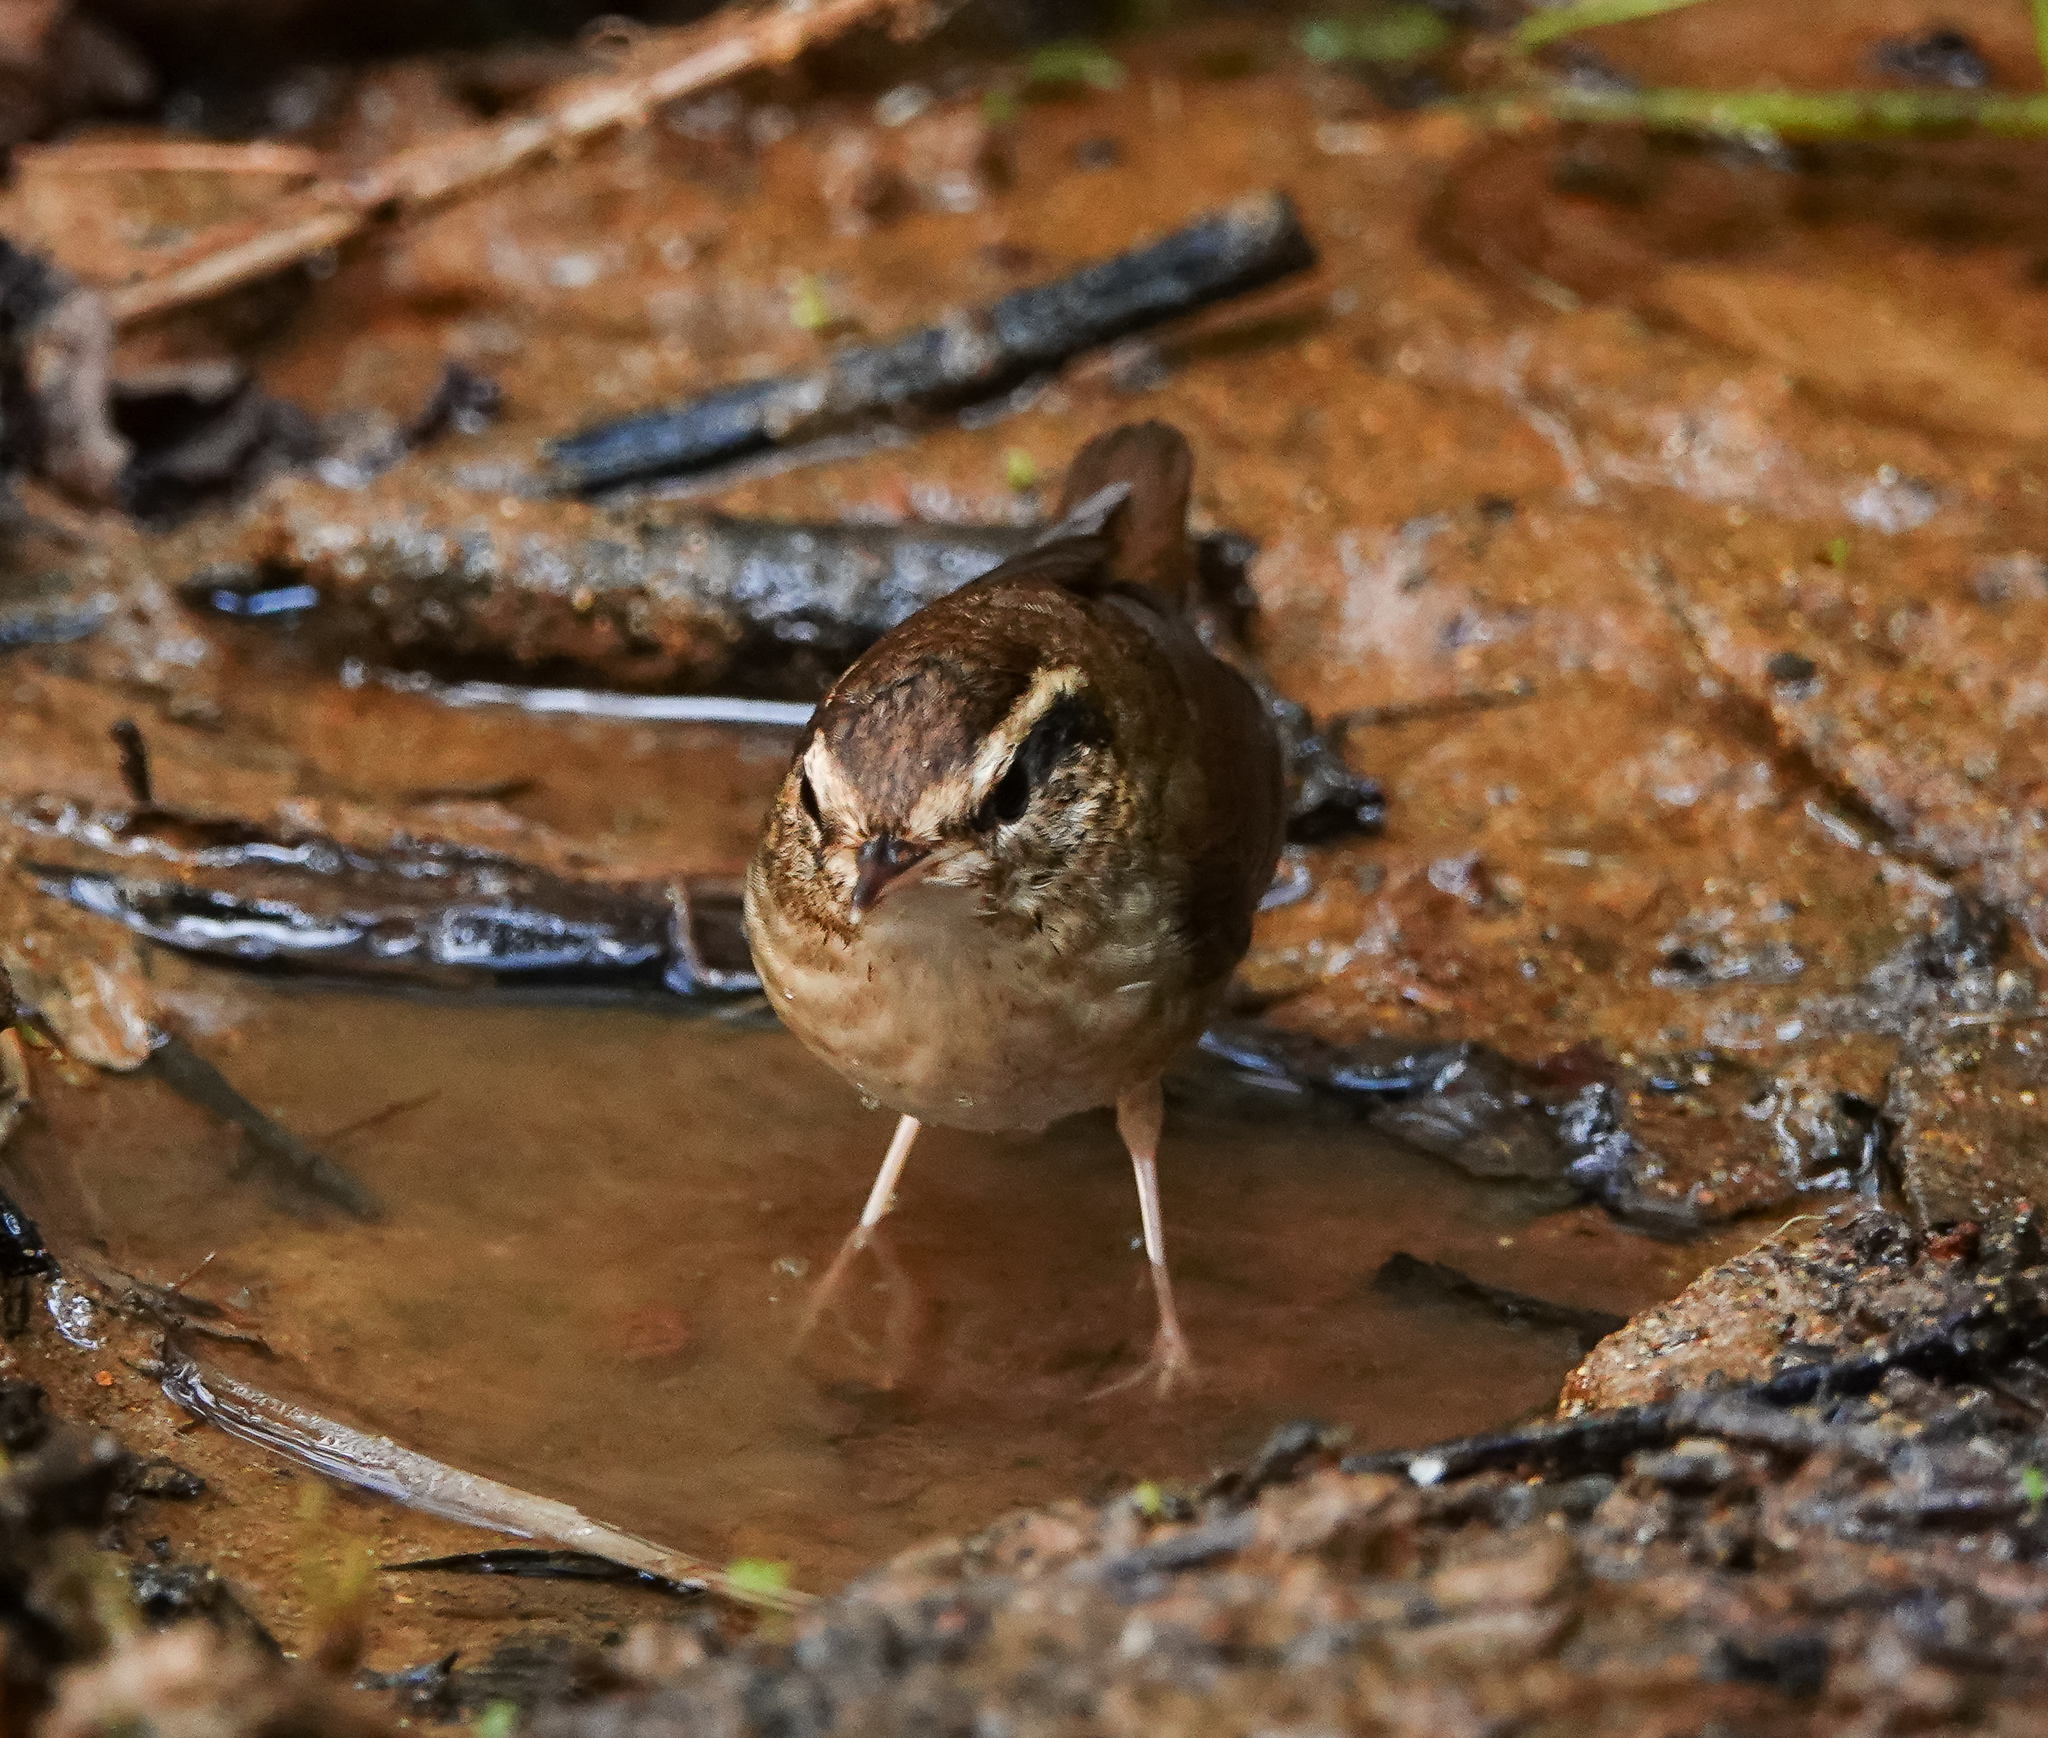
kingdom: Animalia
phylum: Chordata
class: Aves
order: Passeriformes
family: Cettiidae
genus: Urosphena
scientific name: Urosphena squameiceps
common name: Asian stubtail
